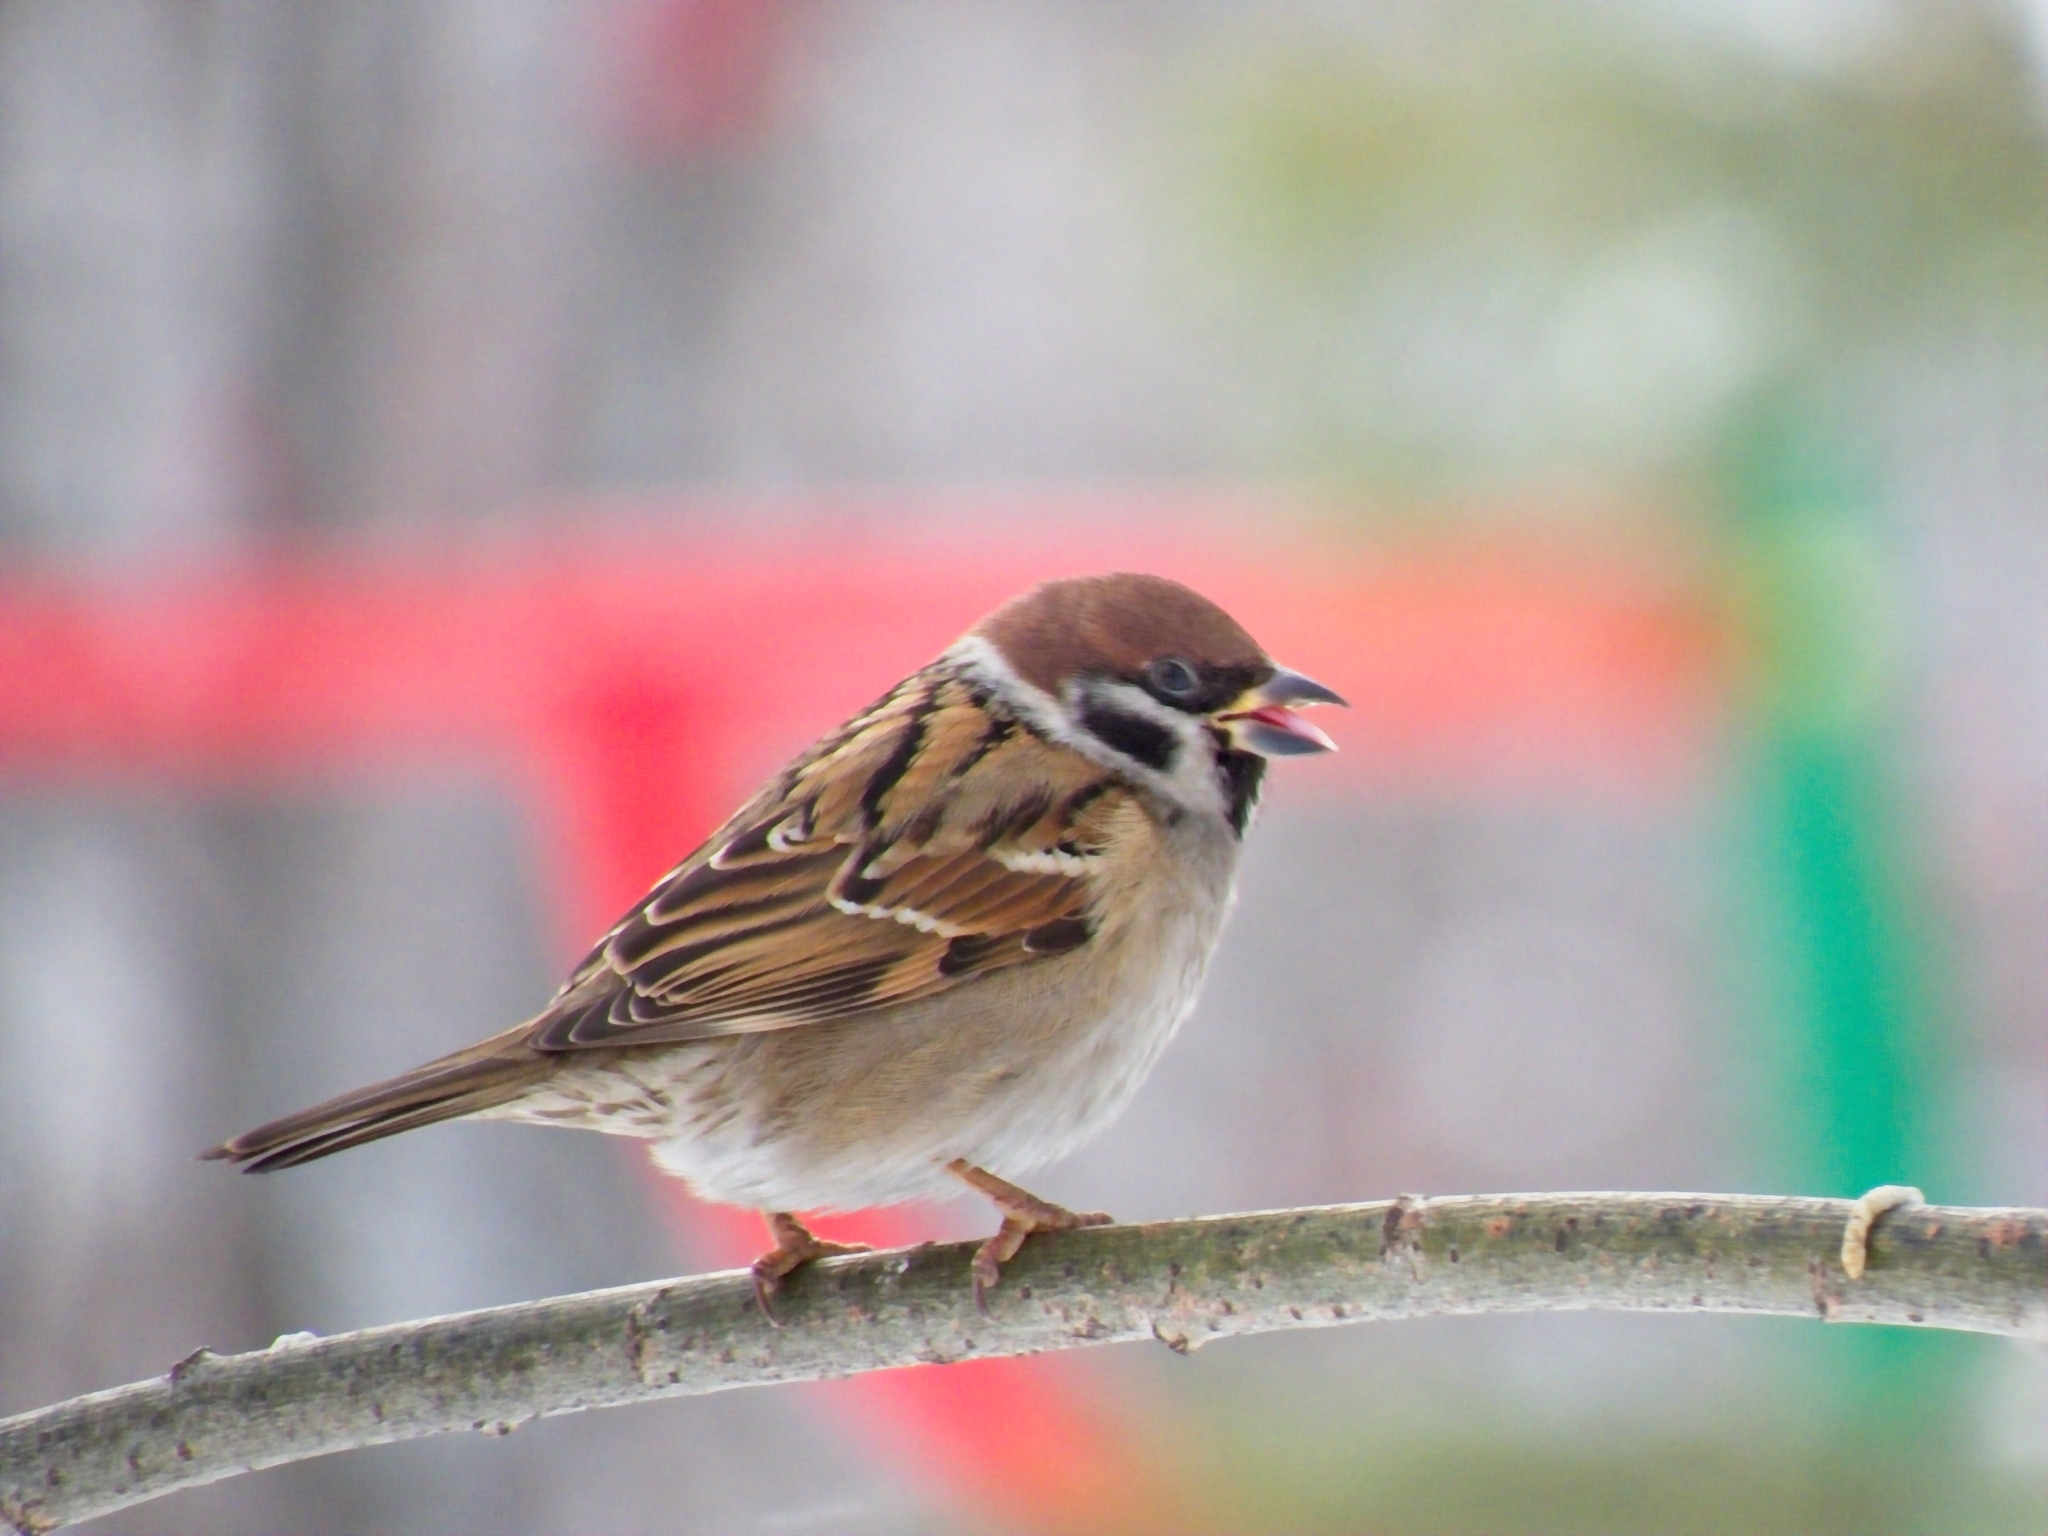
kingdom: Animalia
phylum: Chordata
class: Aves
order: Passeriformes
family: Passeridae
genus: Passer
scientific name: Passer montanus
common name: Eurasian tree sparrow
